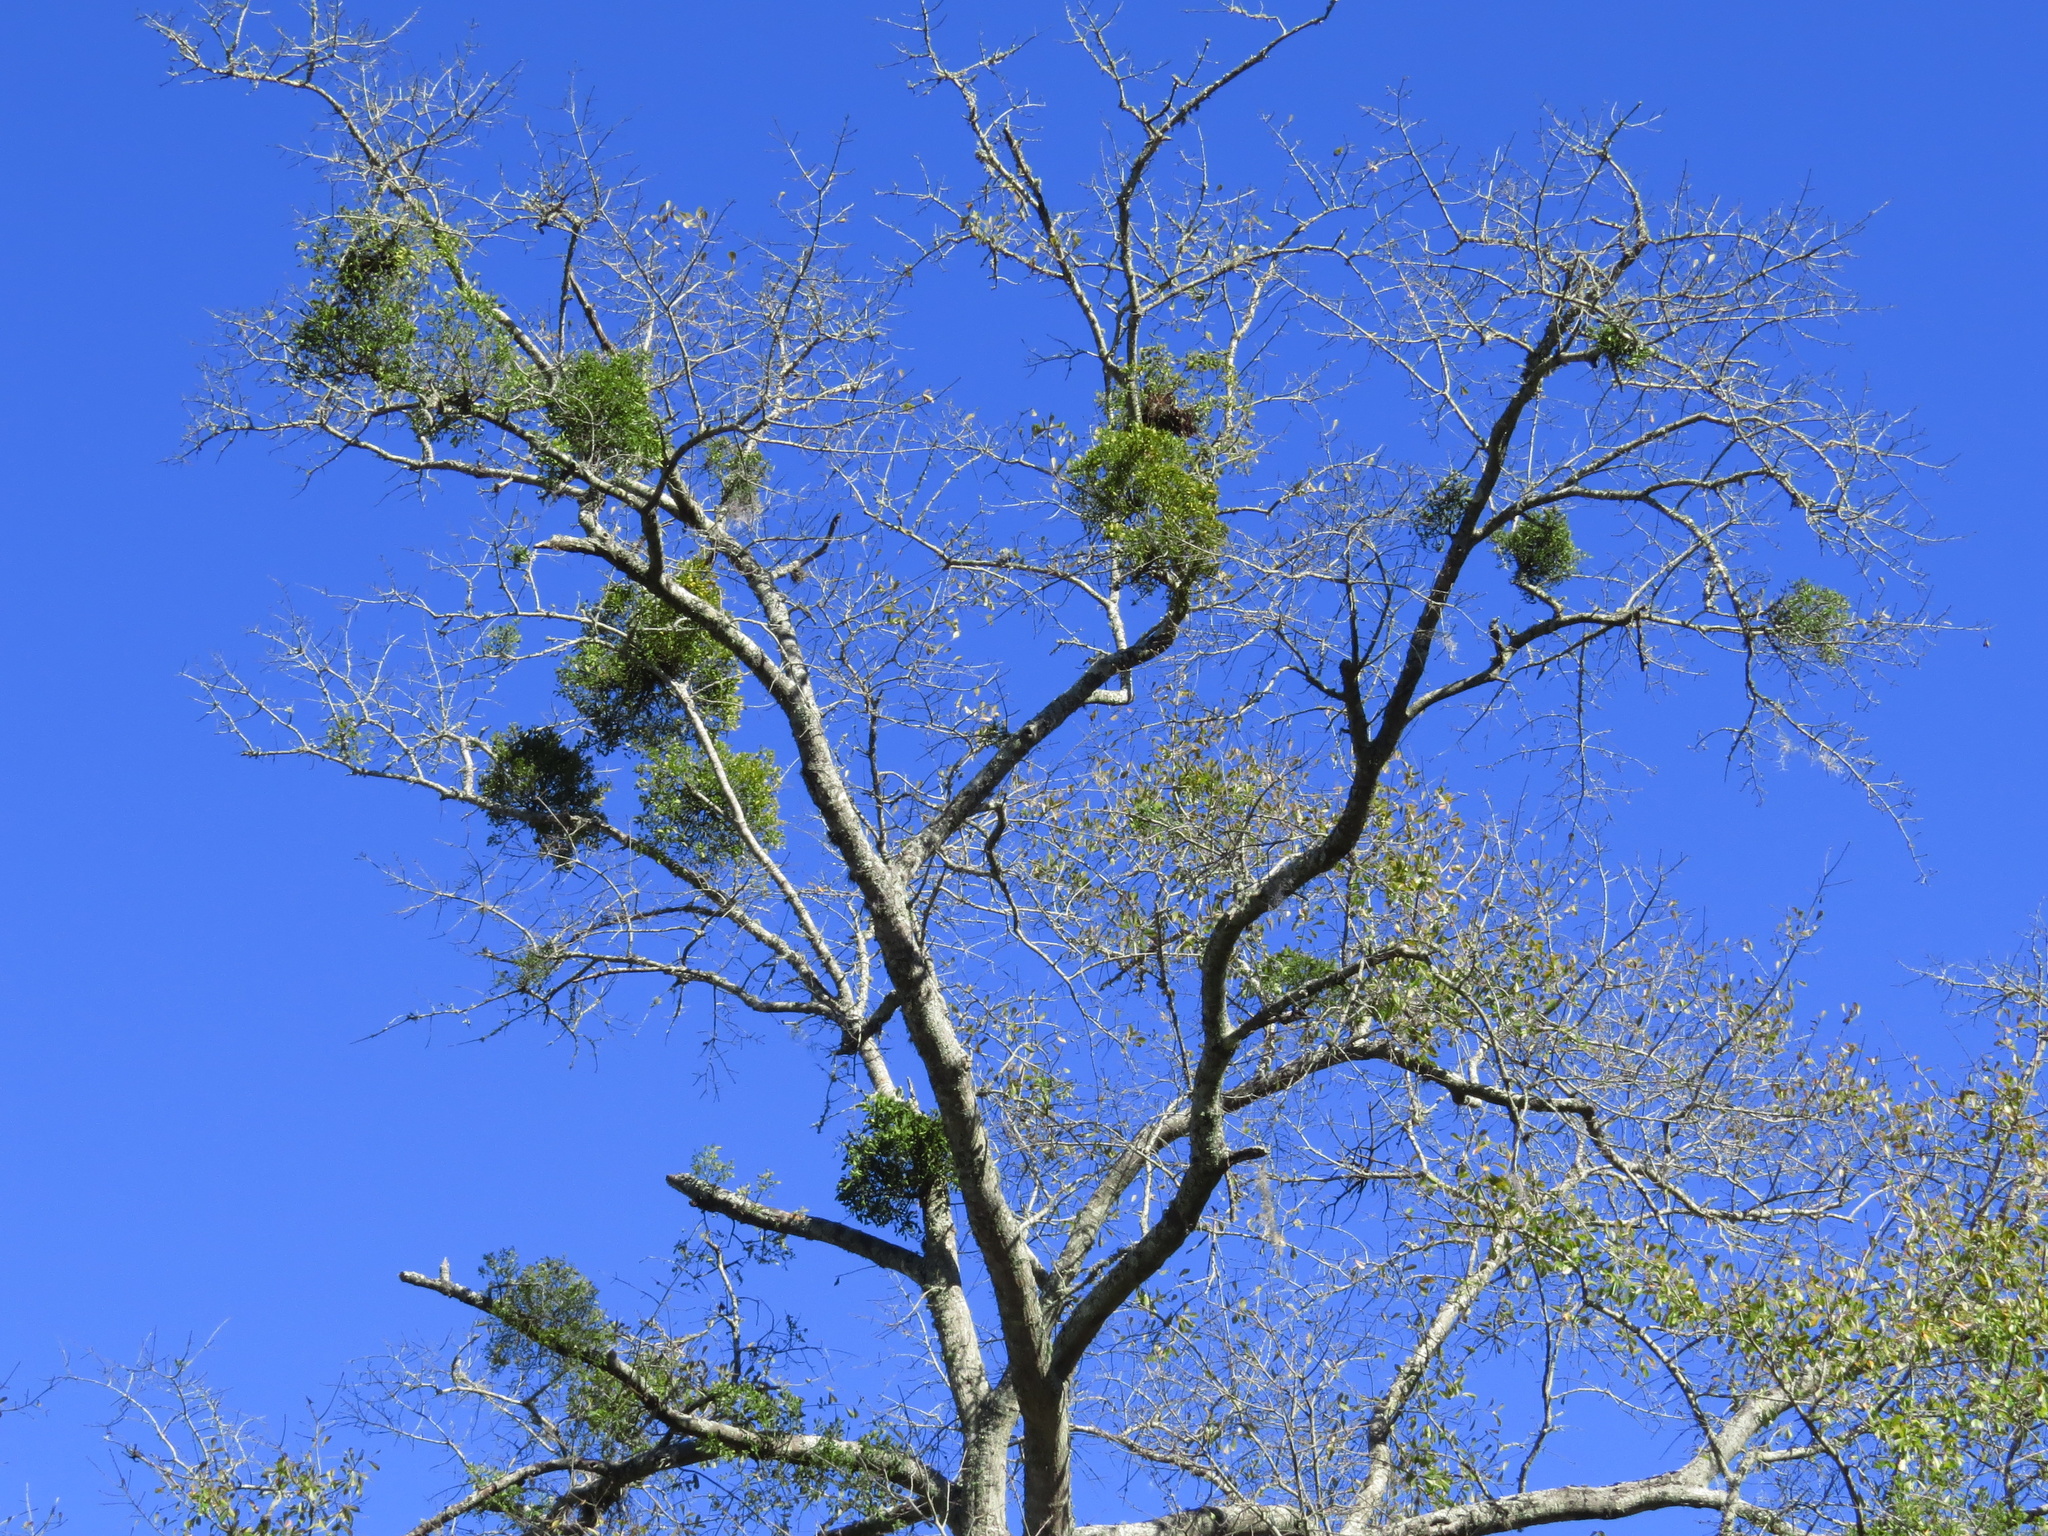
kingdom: Plantae
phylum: Tracheophyta
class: Magnoliopsida
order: Santalales
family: Viscaceae
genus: Phoradendron
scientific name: Phoradendron leucarpum
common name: Pacific mistletoe
